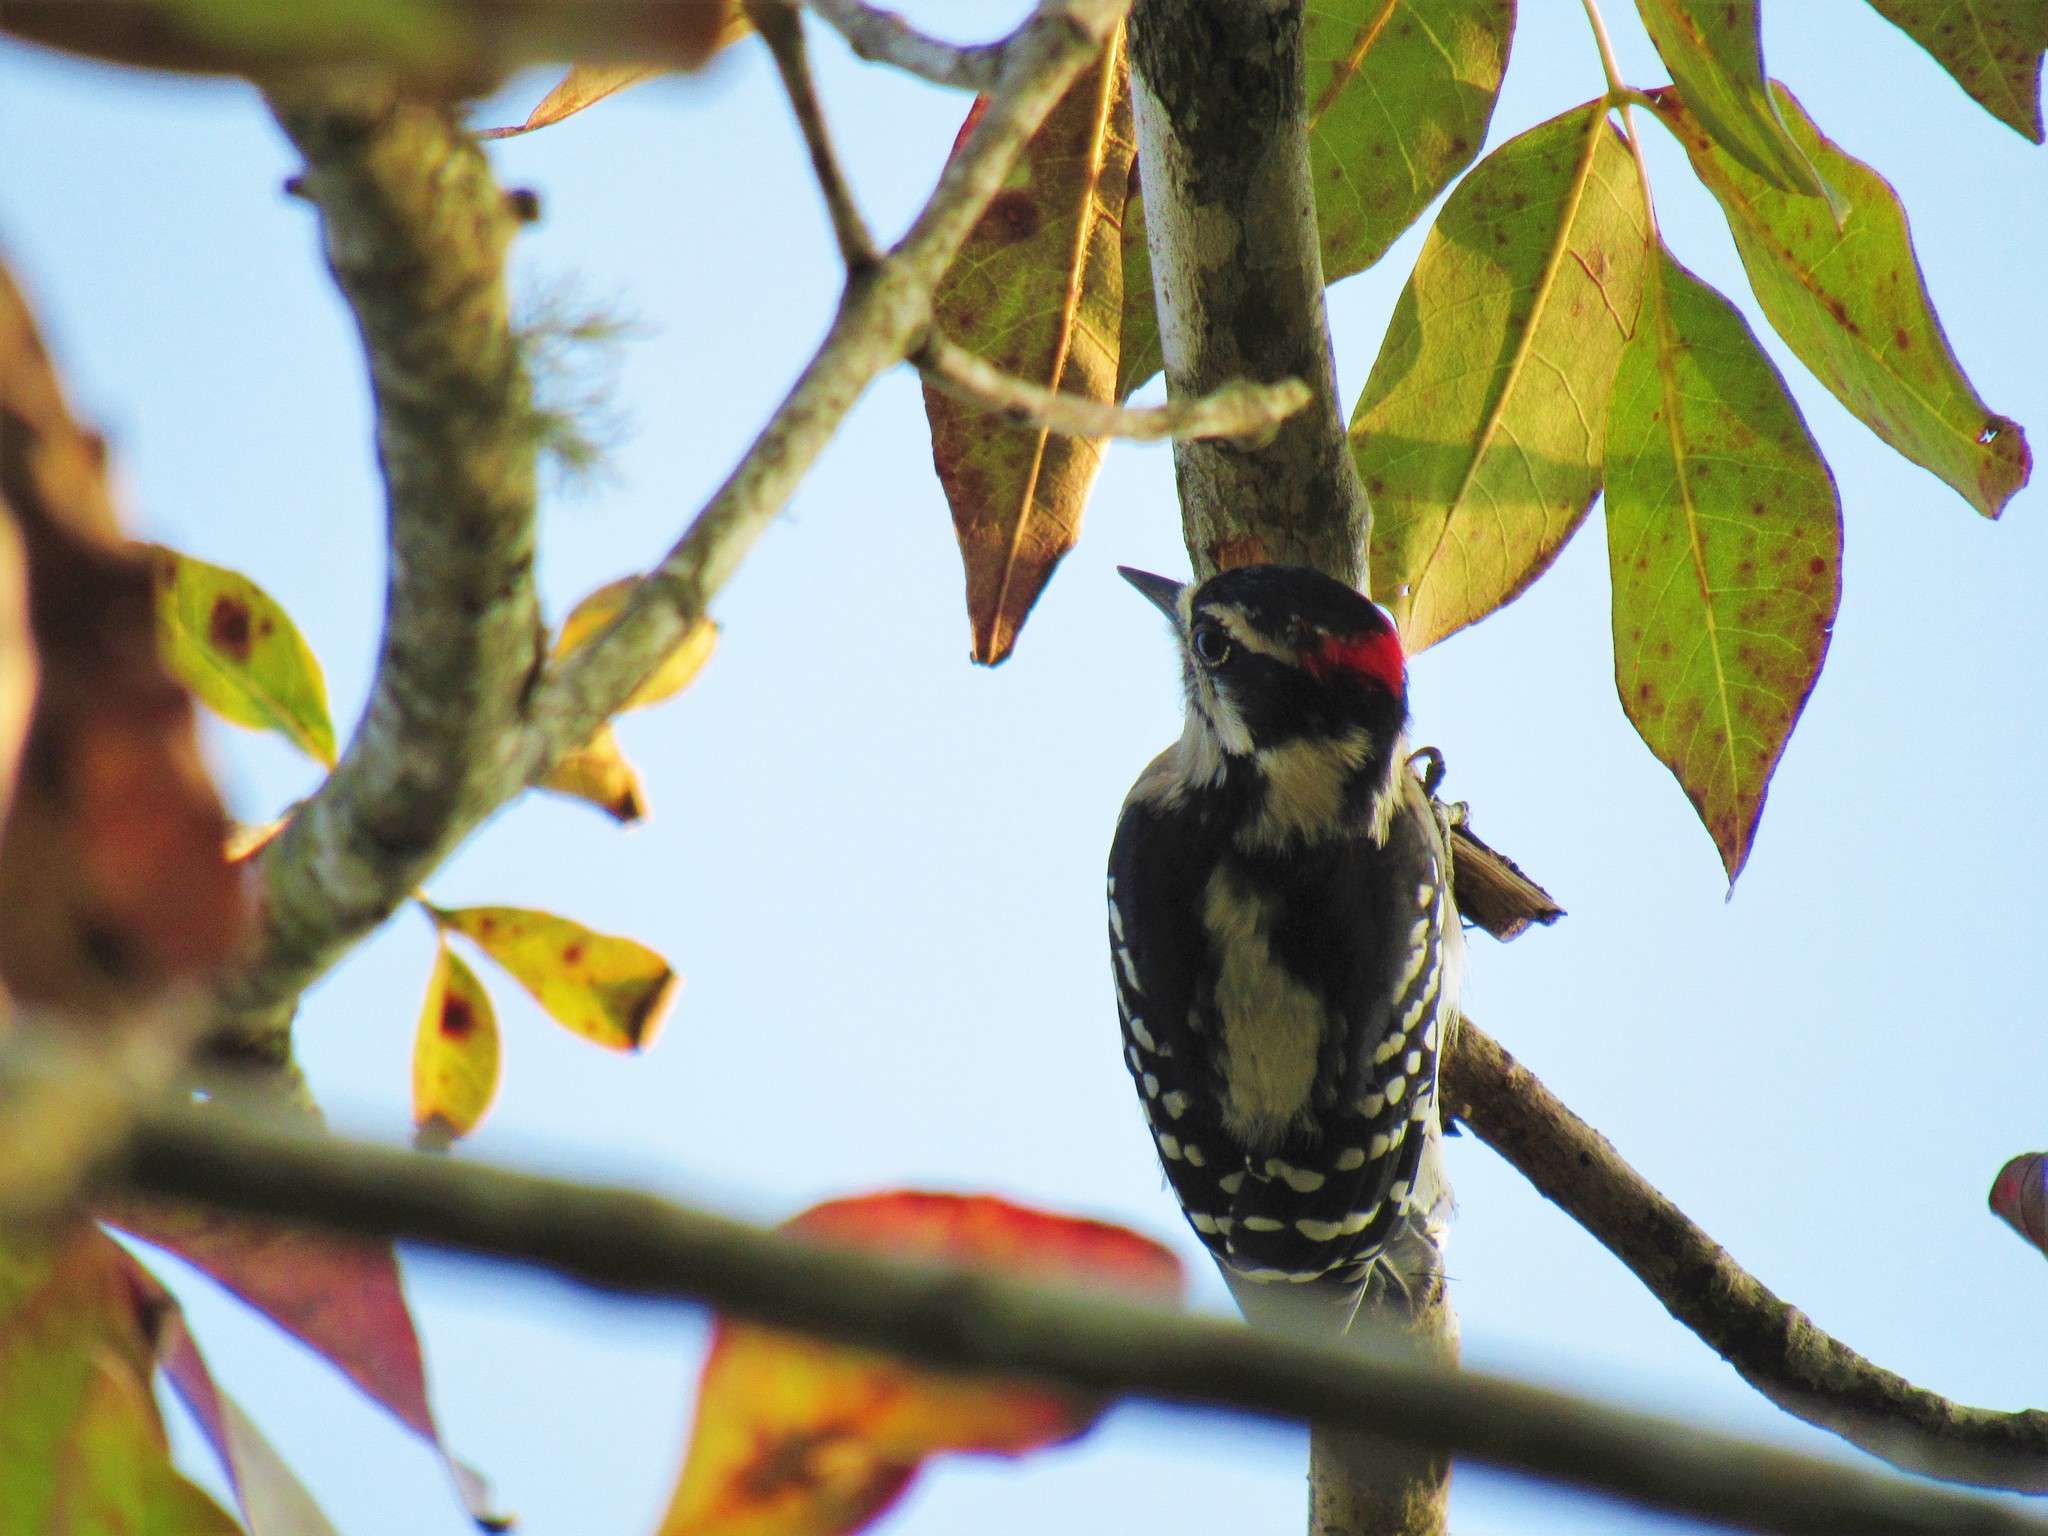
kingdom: Animalia
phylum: Chordata
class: Aves
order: Piciformes
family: Picidae
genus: Dryobates
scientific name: Dryobates pubescens
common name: Downy woodpecker
